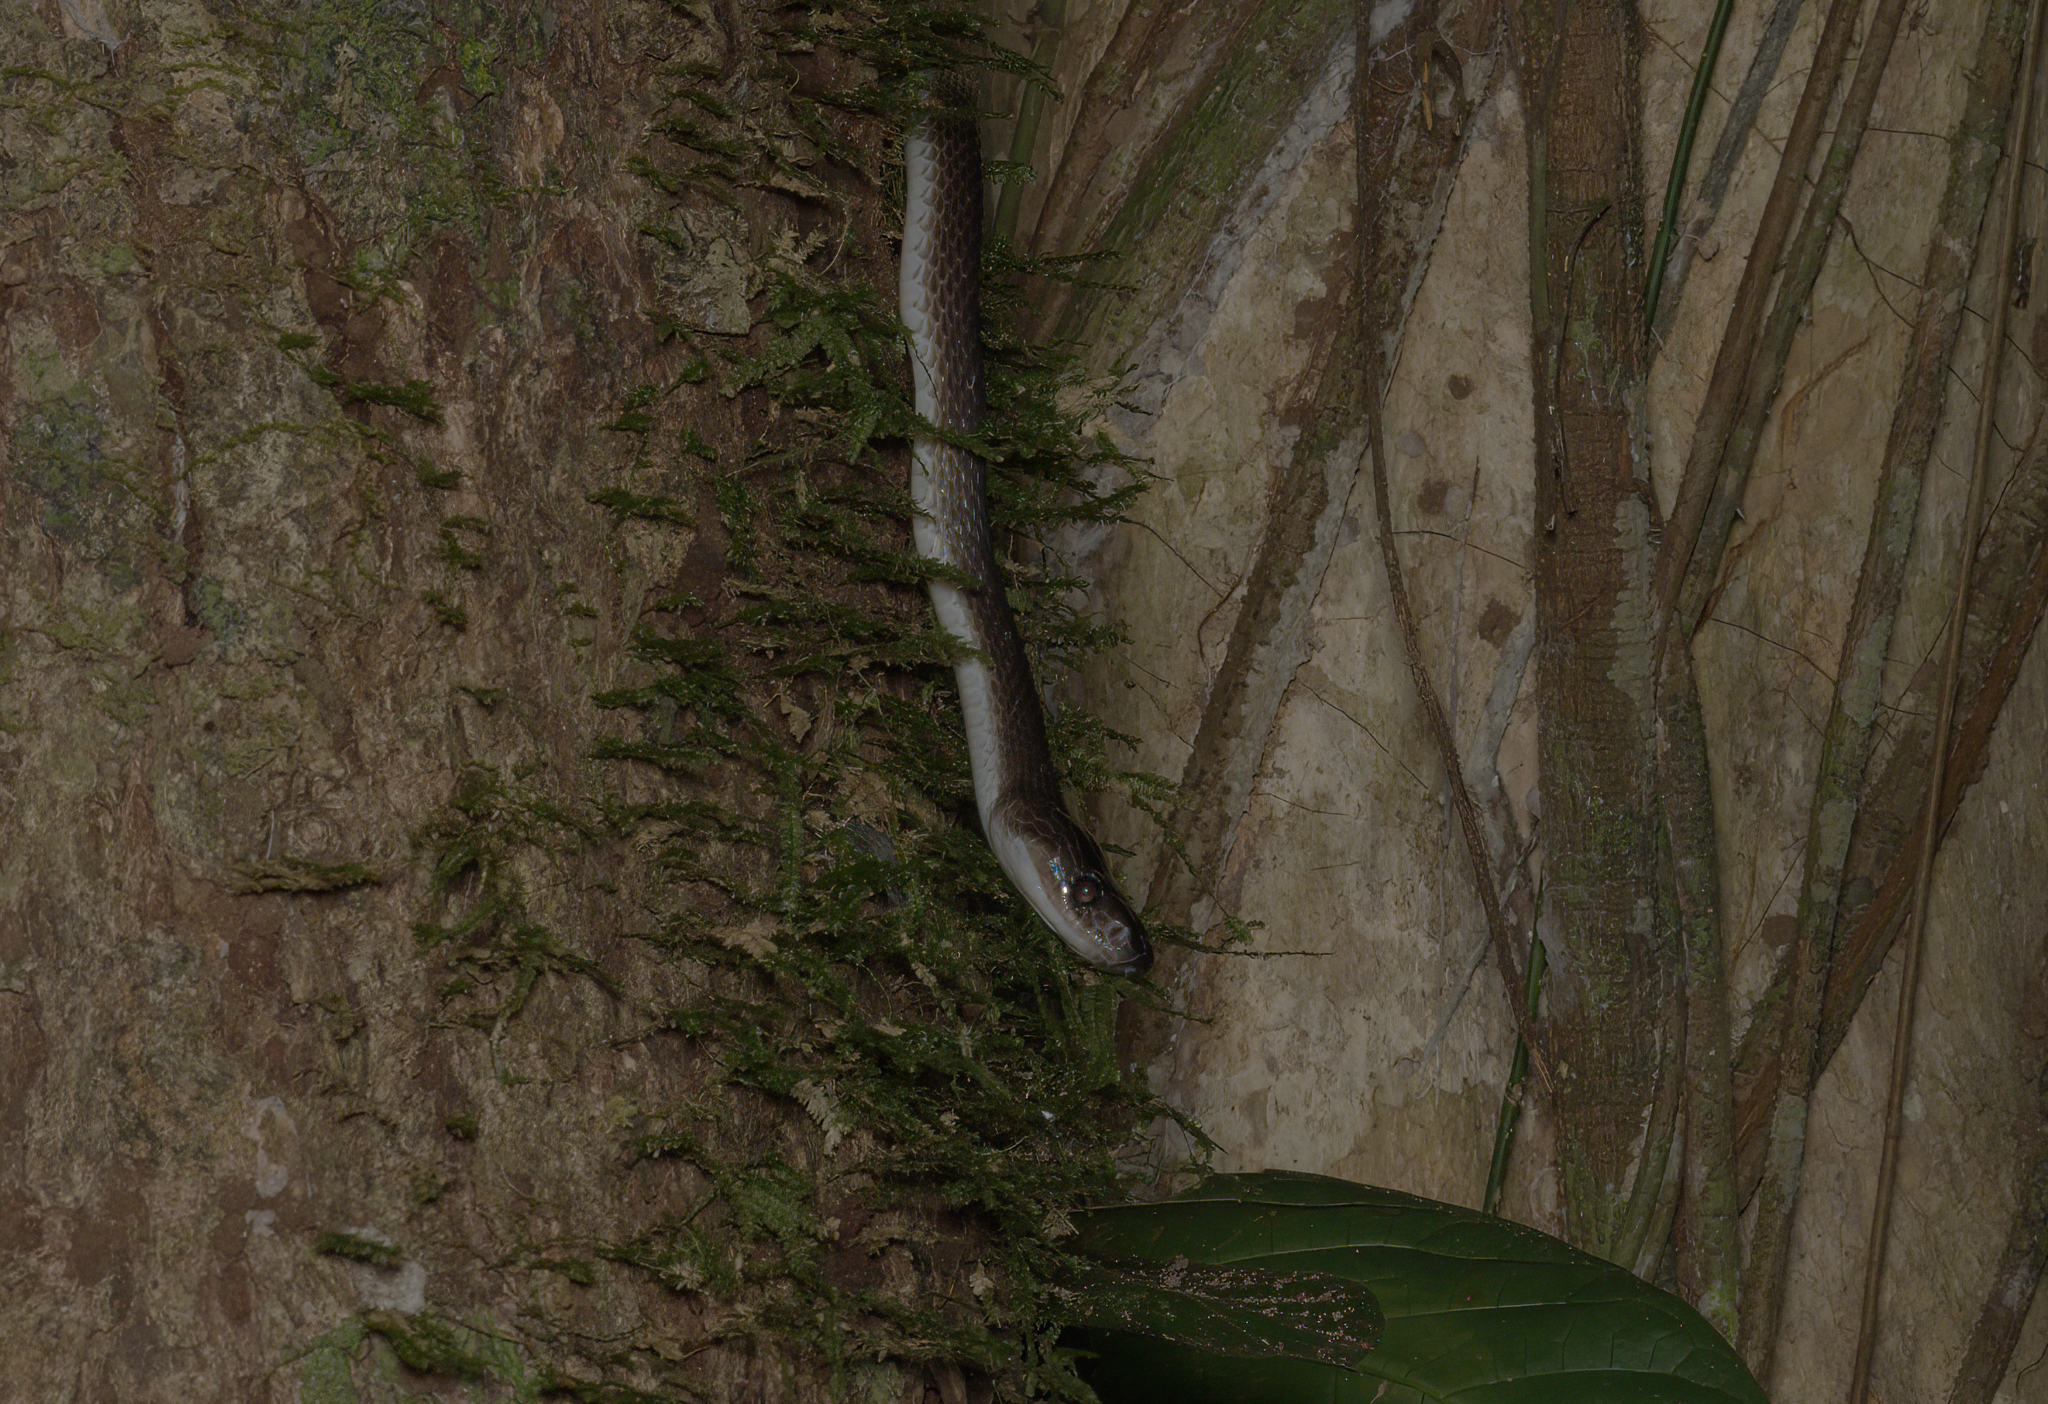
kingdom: Animalia
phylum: Chordata
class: Squamata
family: Colubridae
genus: Lycodon
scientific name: Lycodon albofuscus
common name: Dark wolf snake
